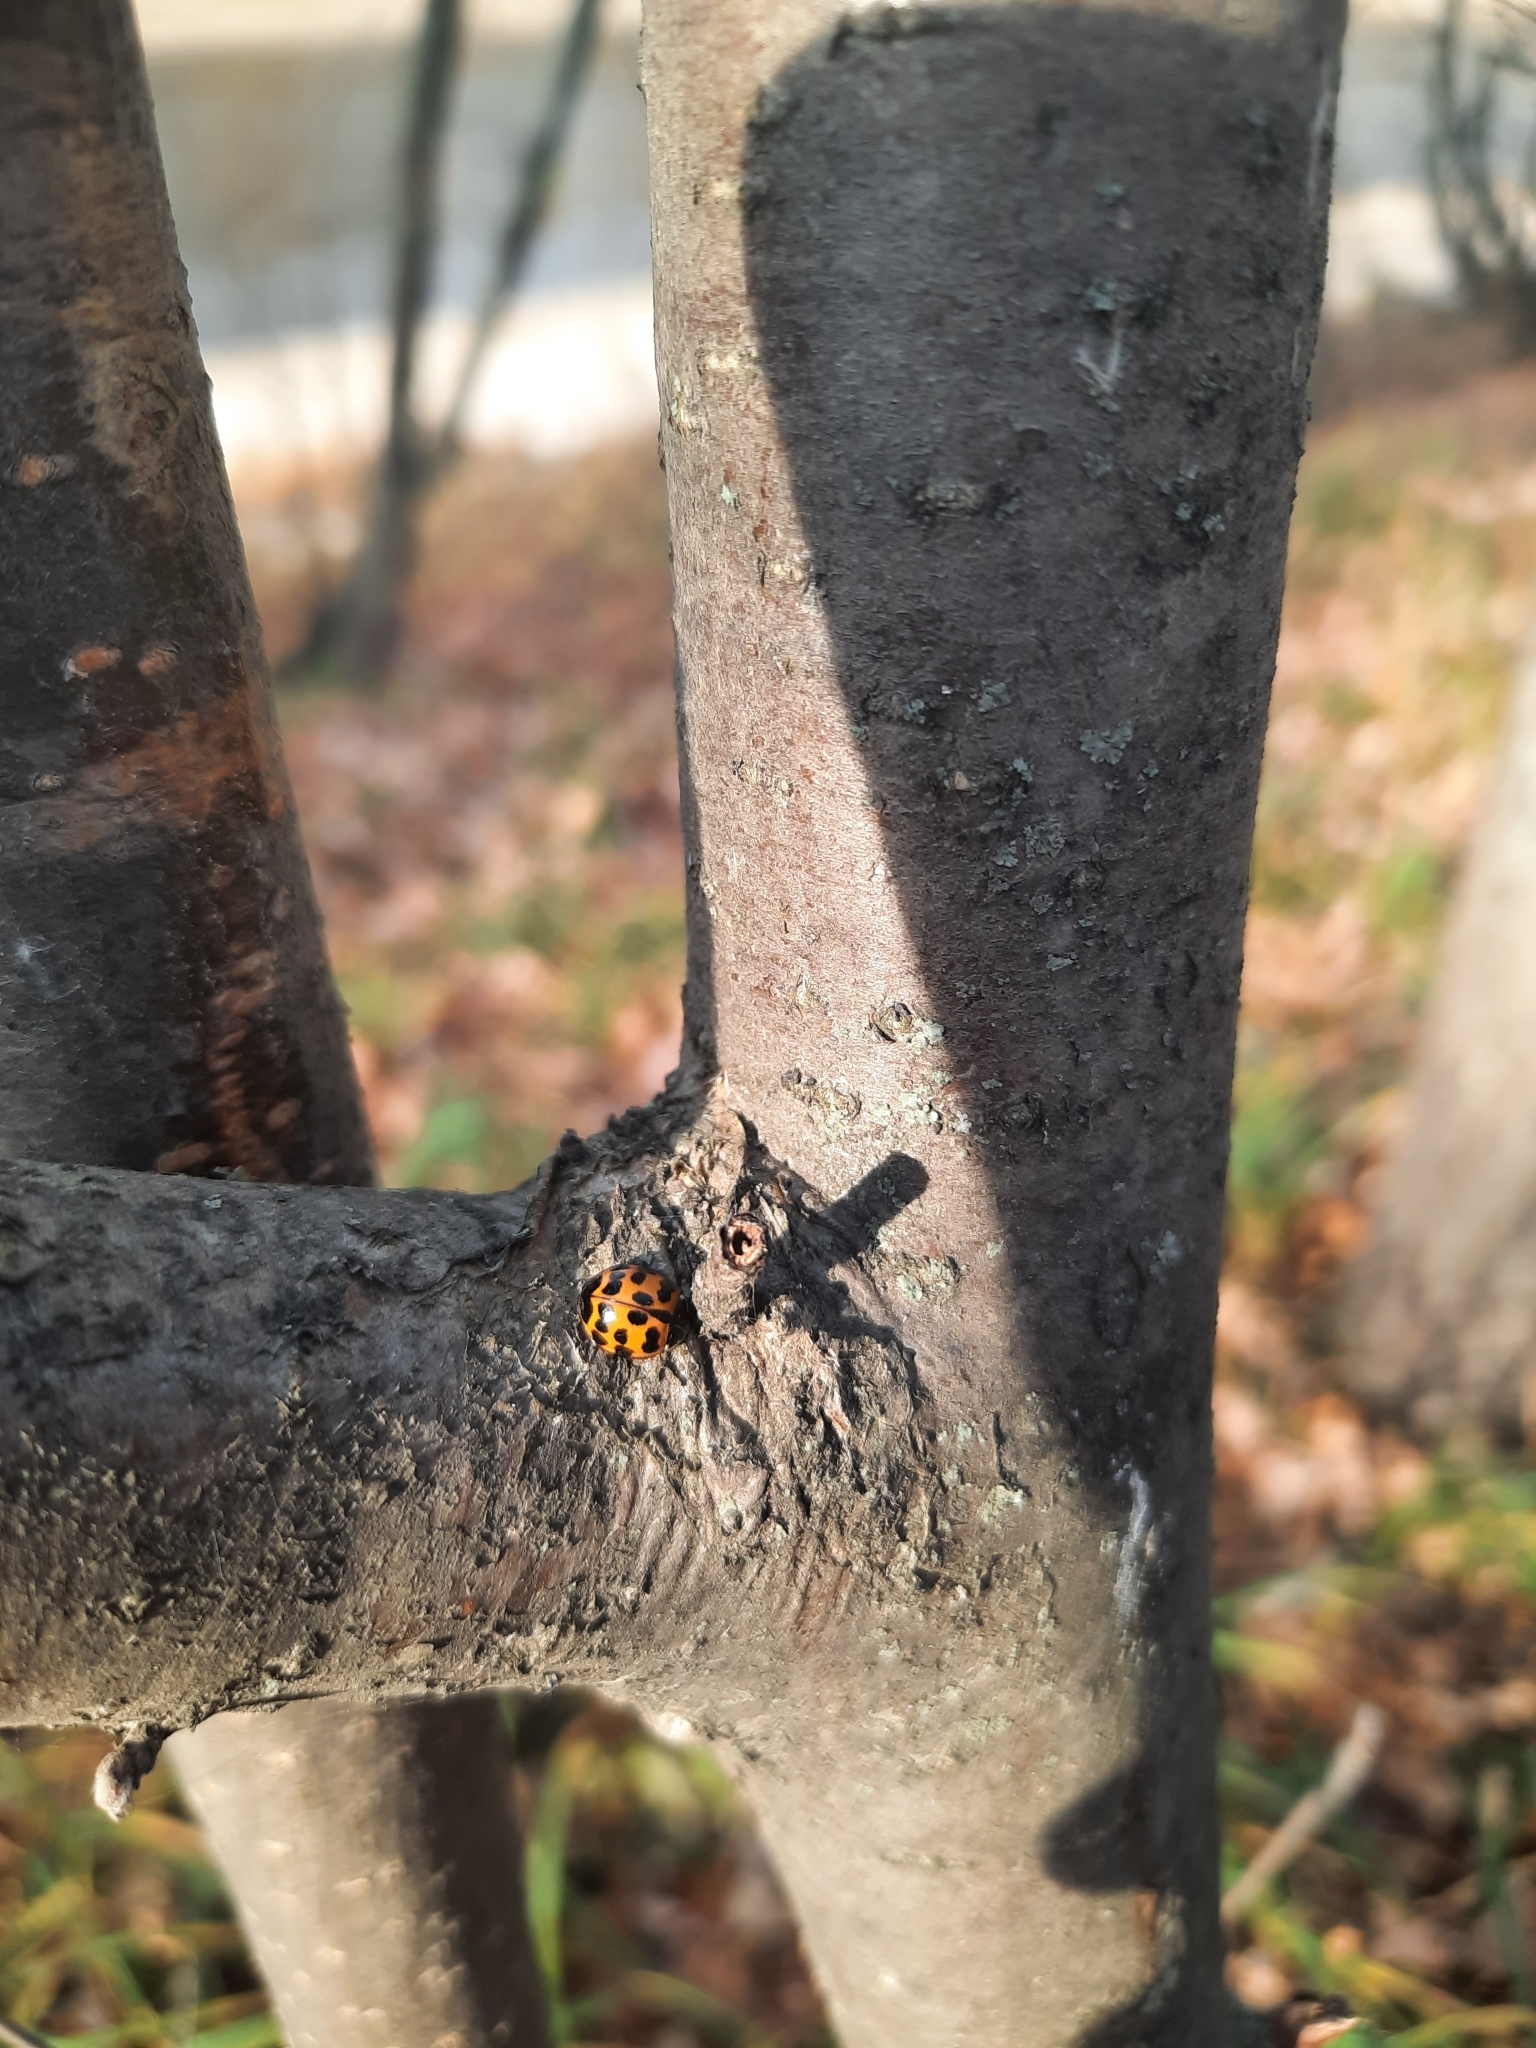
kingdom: Animalia
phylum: Arthropoda
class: Insecta
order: Coleoptera
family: Coccinellidae
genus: Harmonia
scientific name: Harmonia axyridis
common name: Harlequin ladybird
